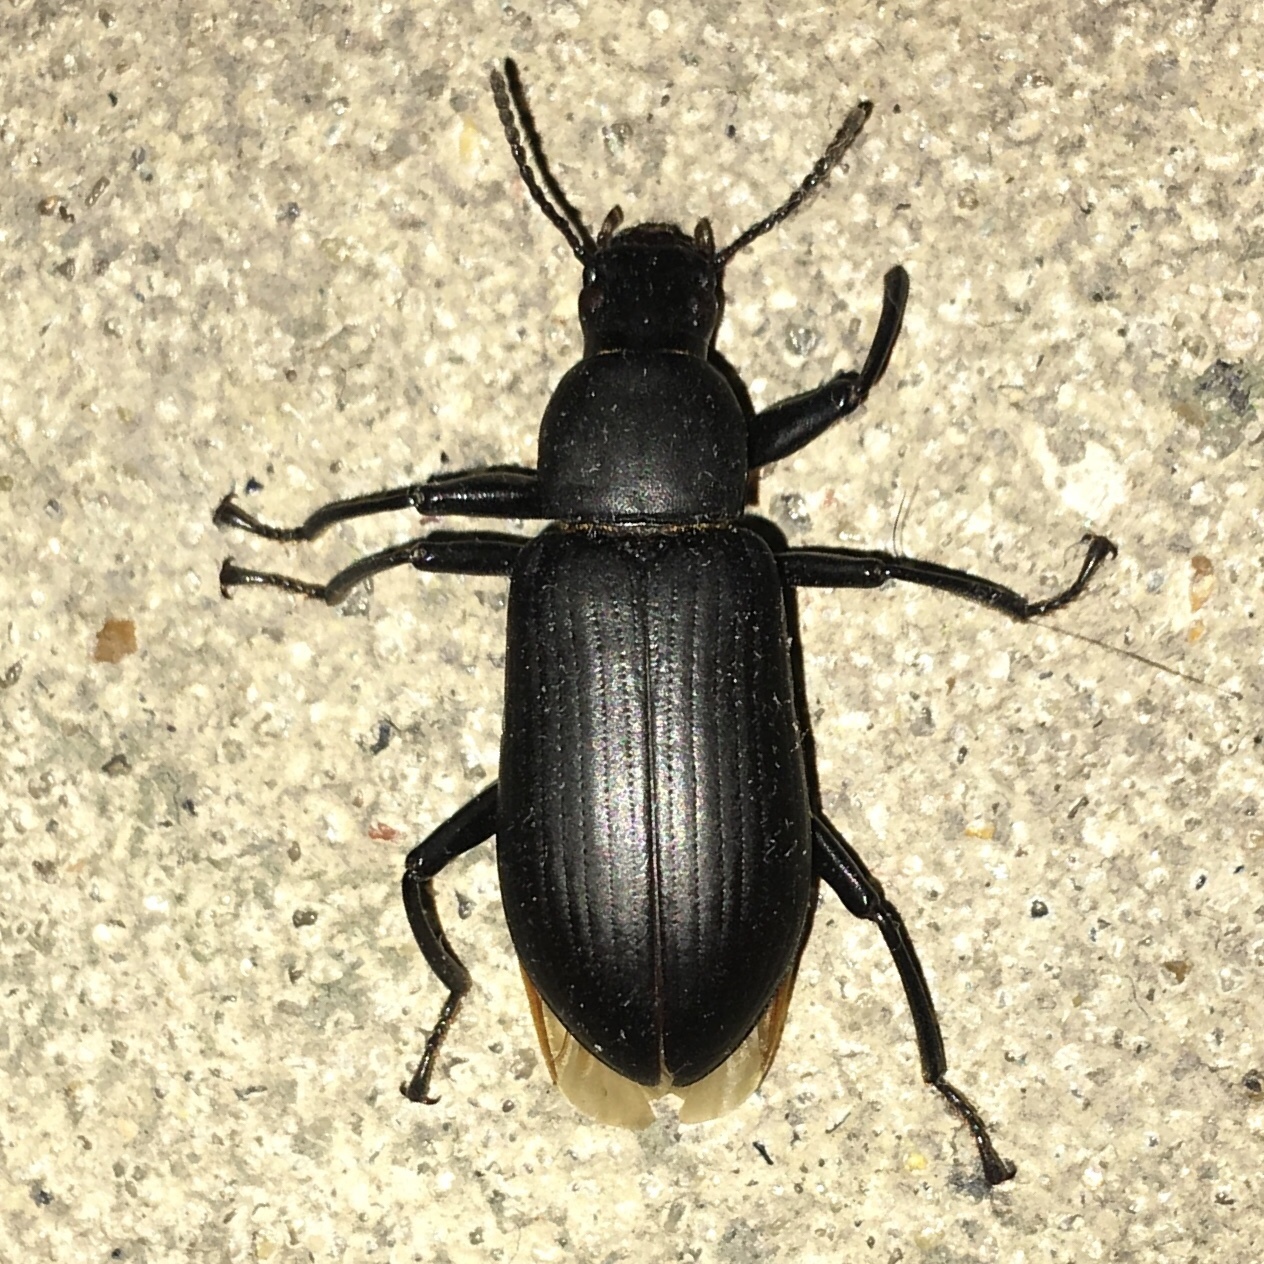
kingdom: Animalia
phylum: Arthropoda
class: Insecta
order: Coleoptera
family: Tenebrionidae
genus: Alobates
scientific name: Alobates pensylvanicus
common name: False mealworm beetle
